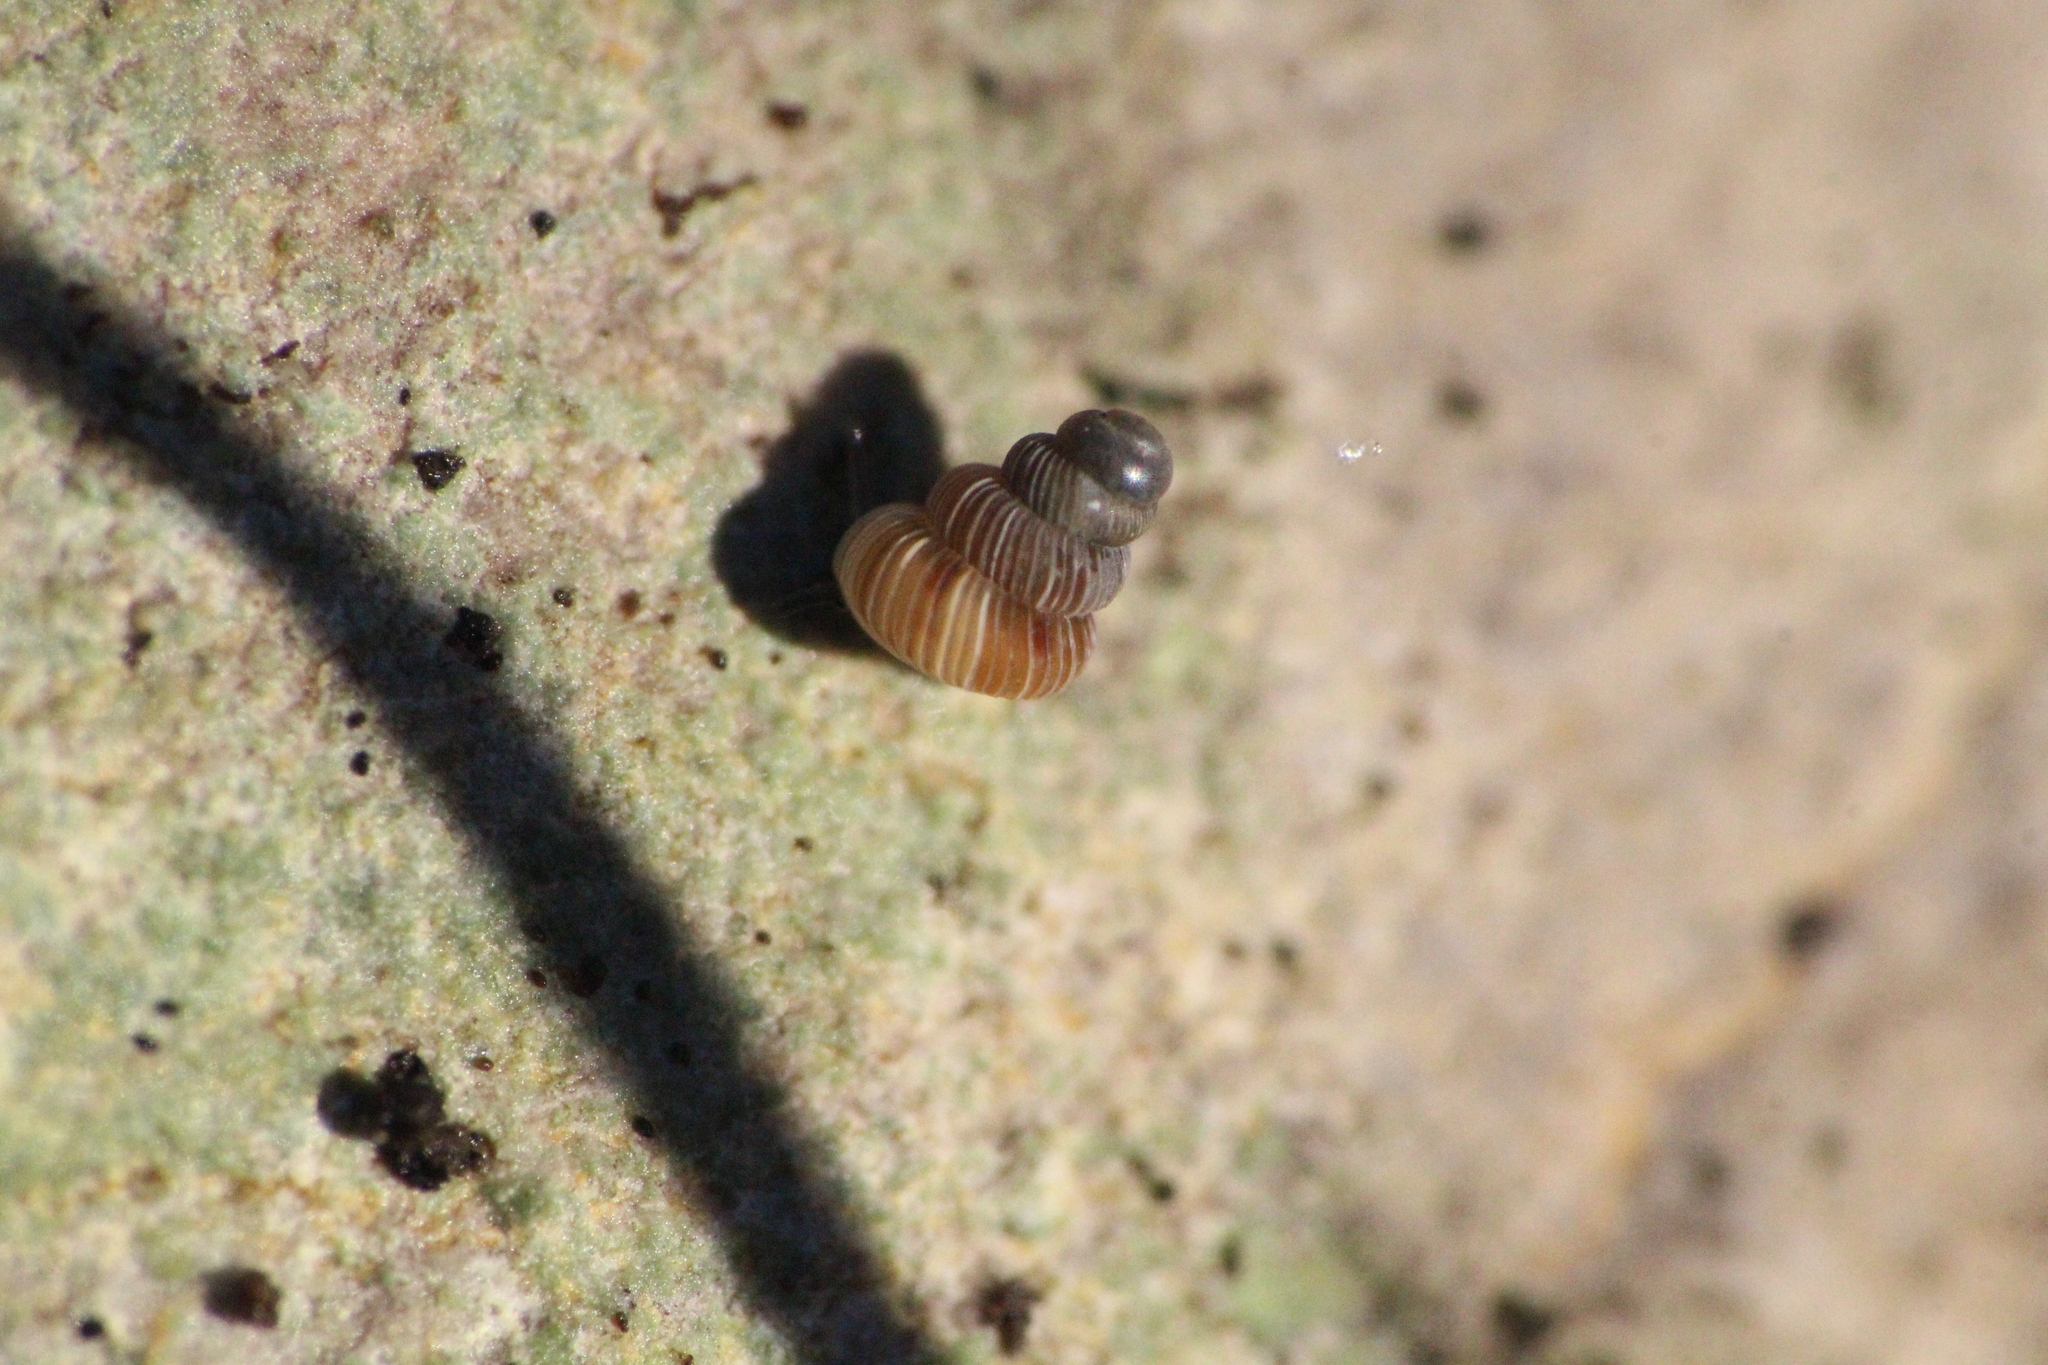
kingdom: Animalia
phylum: Mollusca
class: Gastropoda
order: Architaenioglossa
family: Cochlostomatidae
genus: Cochlostoma
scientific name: Cochlostoma septemspirale
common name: Seven-whorl snail
